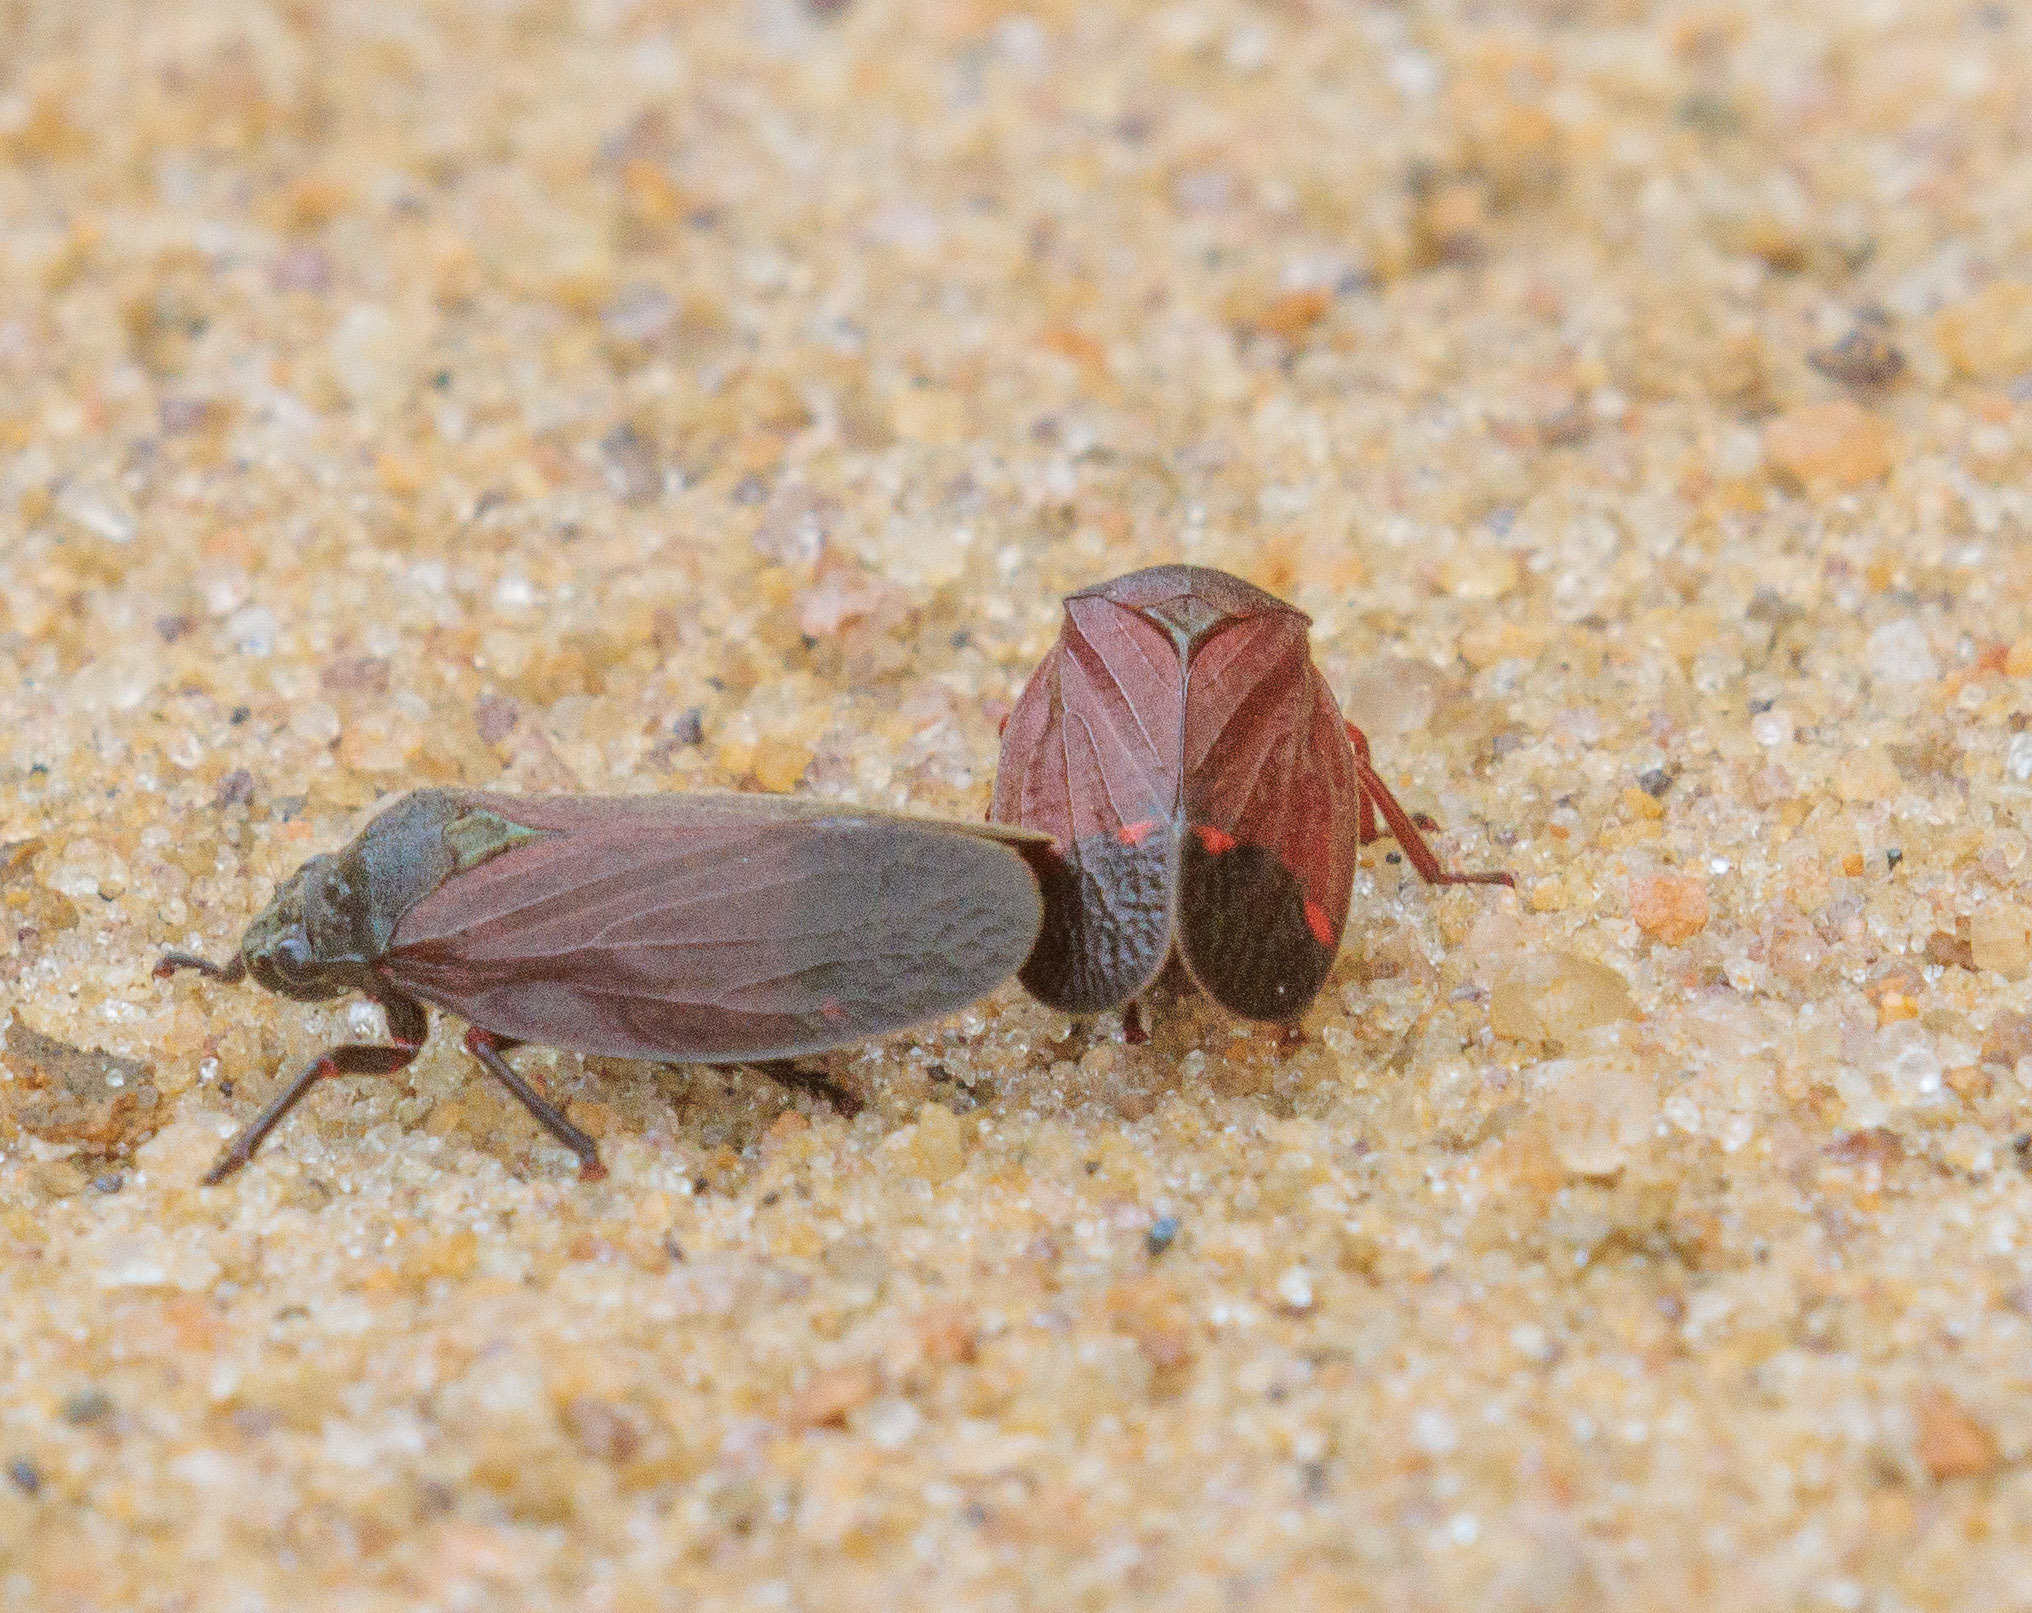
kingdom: Animalia
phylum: Arthropoda
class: Insecta
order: Hemiptera
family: Cercopidae
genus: Mahanarva
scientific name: Mahanarva posticata
